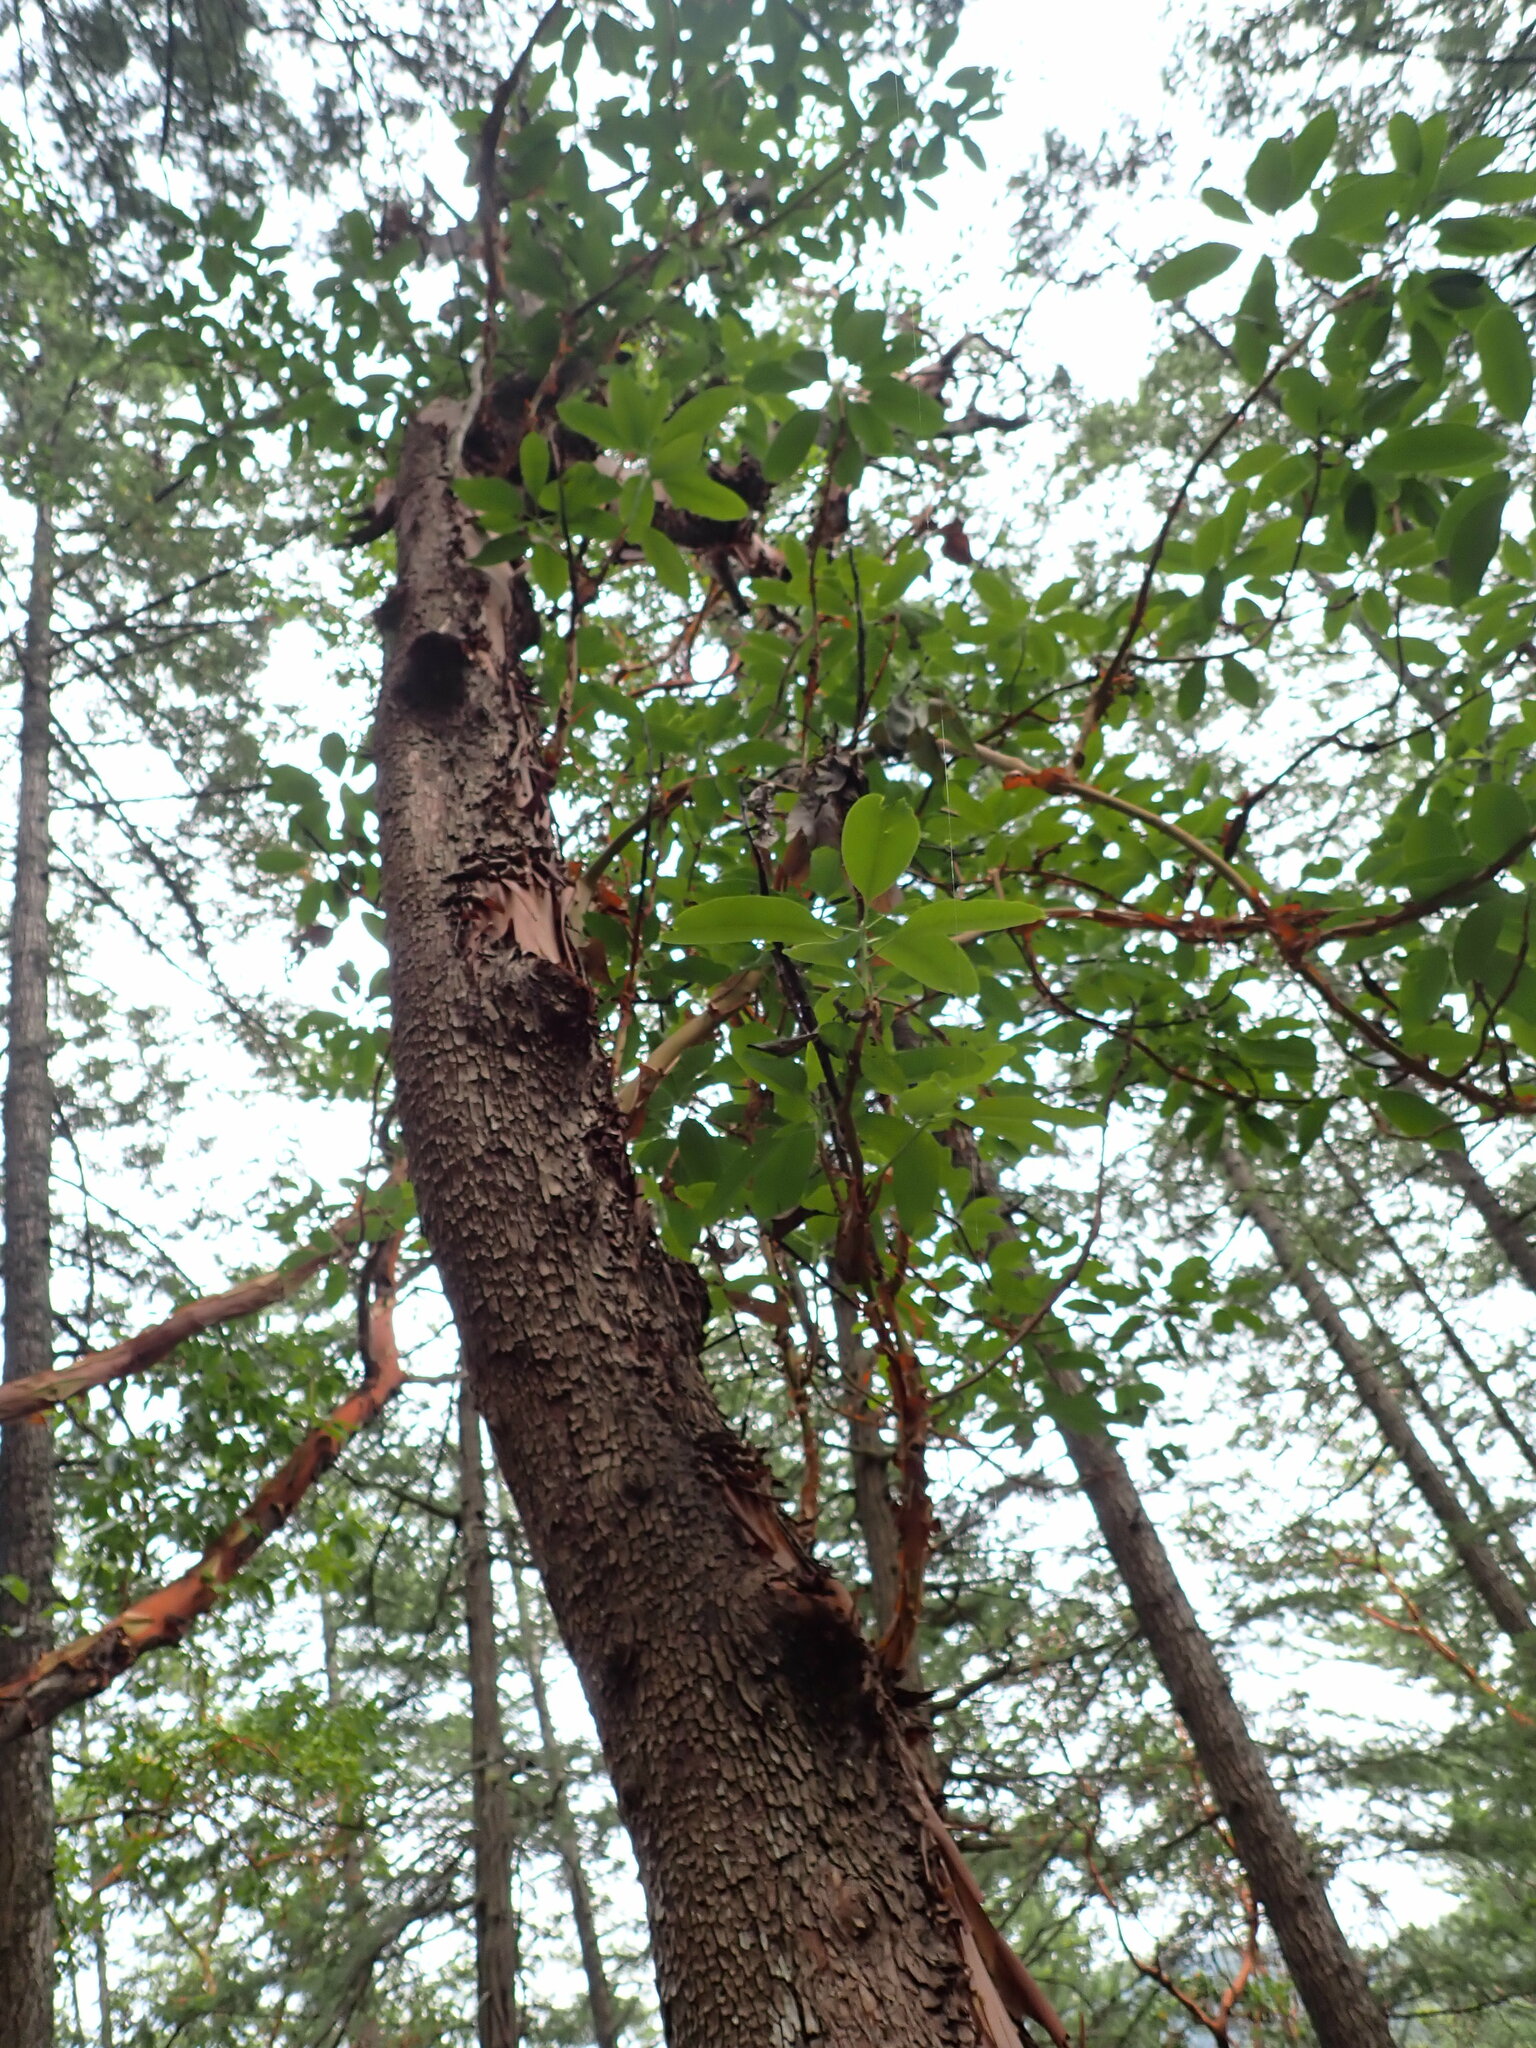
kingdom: Plantae
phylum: Tracheophyta
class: Magnoliopsida
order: Ericales
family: Ericaceae
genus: Arbutus
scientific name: Arbutus menziesii
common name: Pacific madrone
